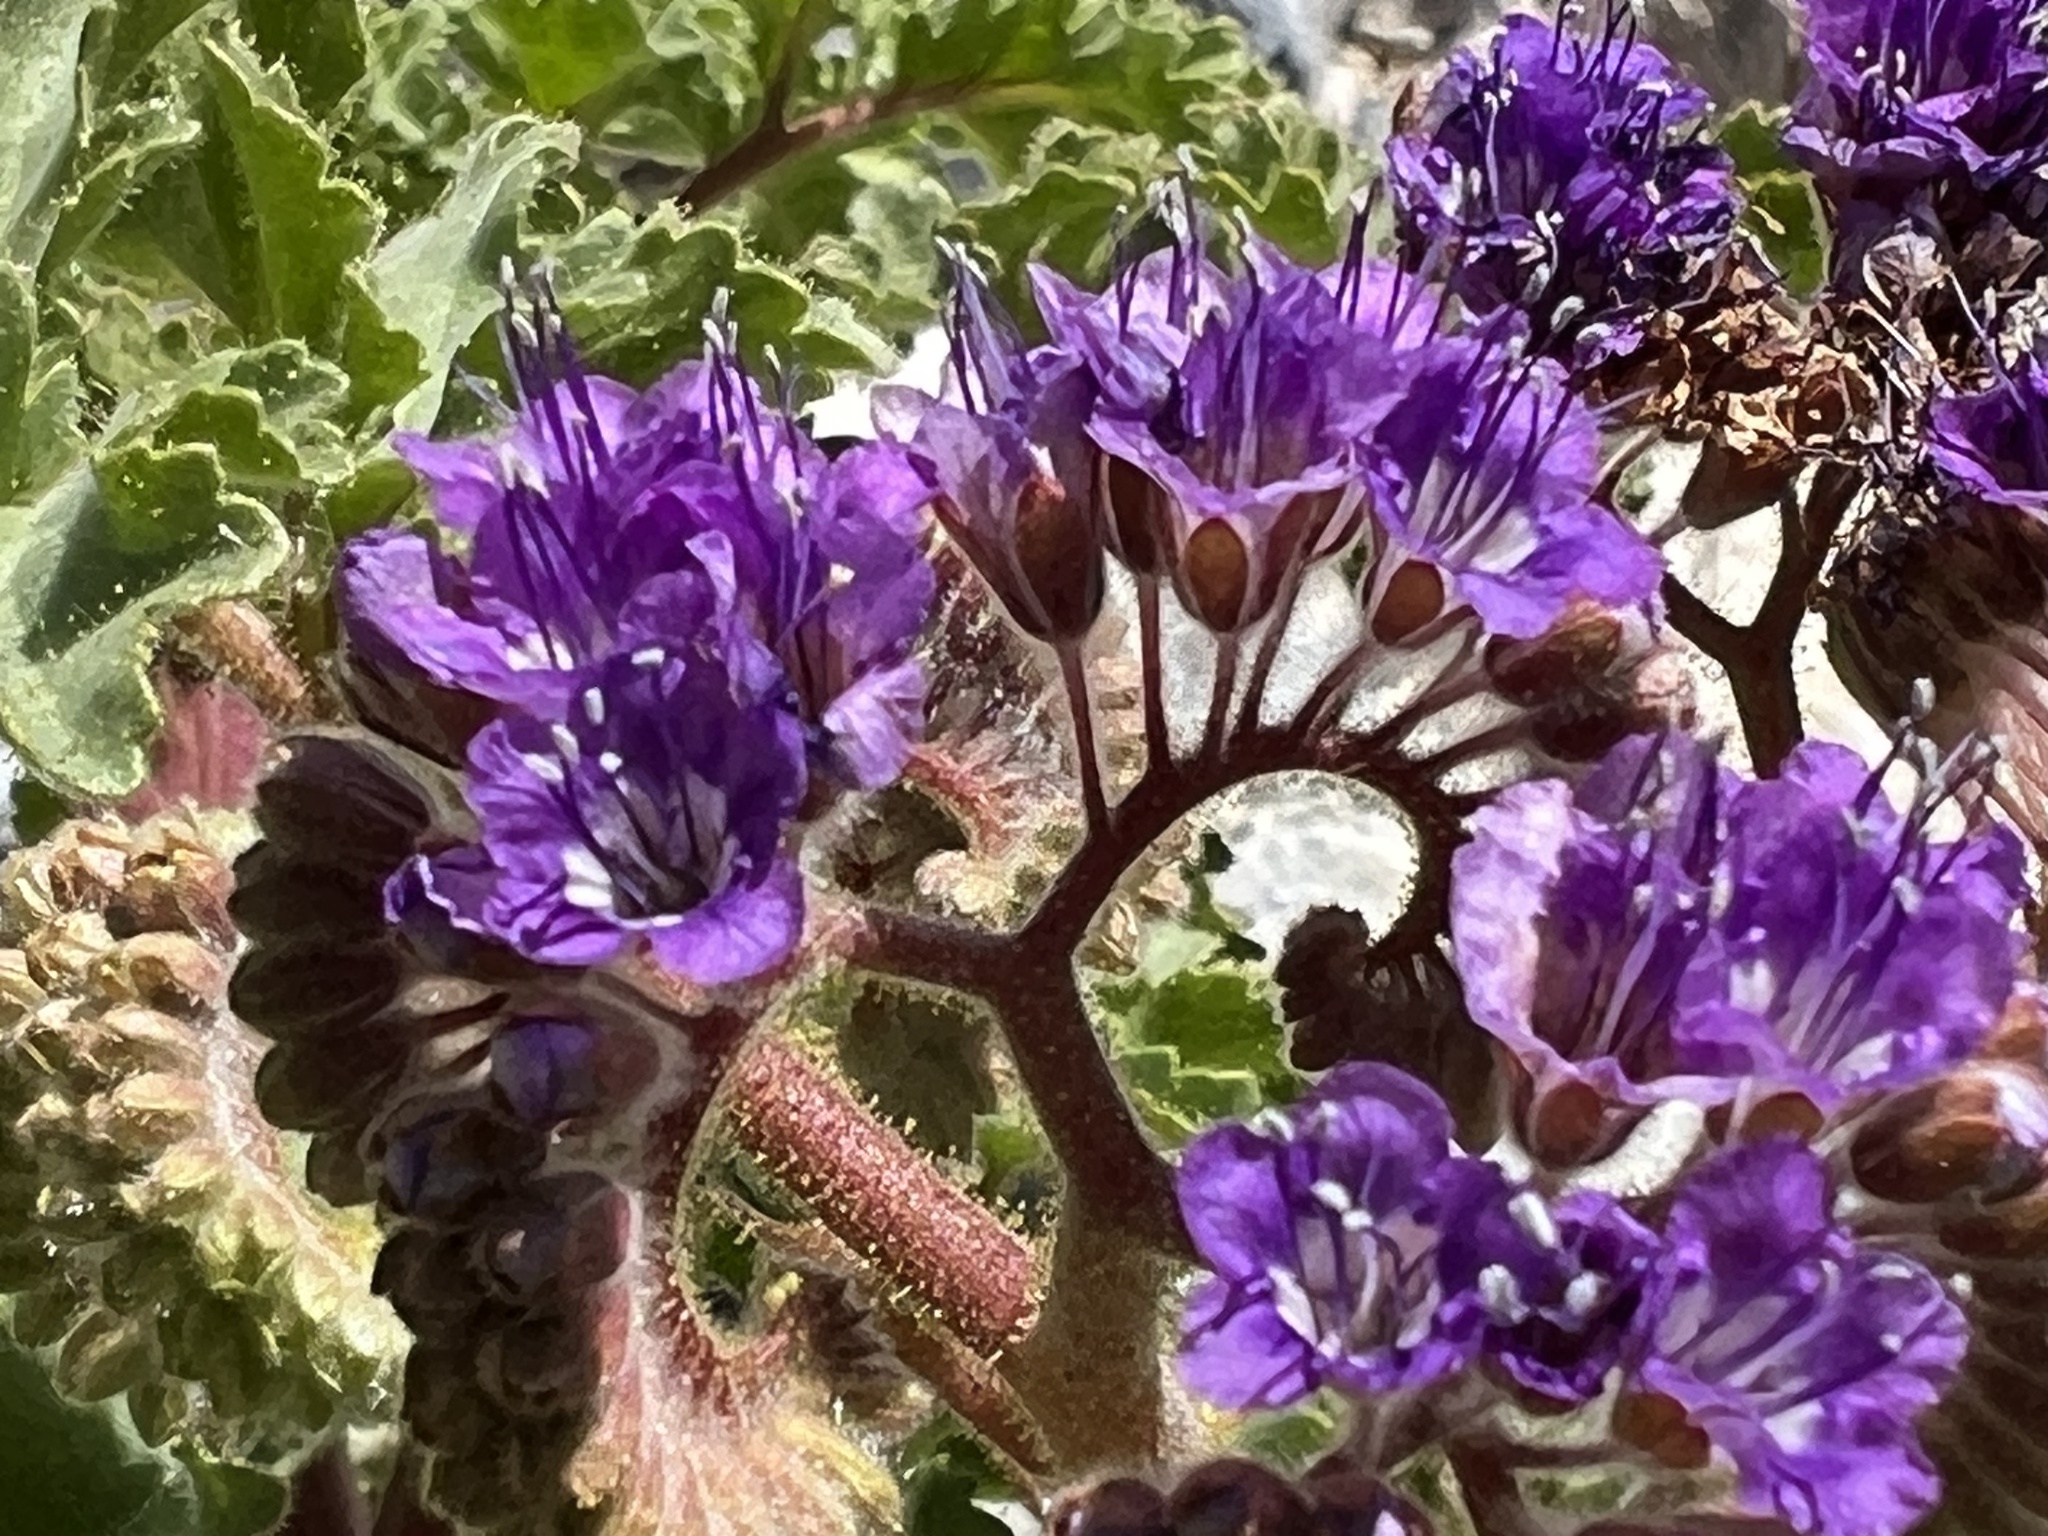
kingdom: Plantae
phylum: Tracheophyta
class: Magnoliopsida
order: Boraginales
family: Hydrophyllaceae
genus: Phacelia
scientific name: Phacelia pedicellata
